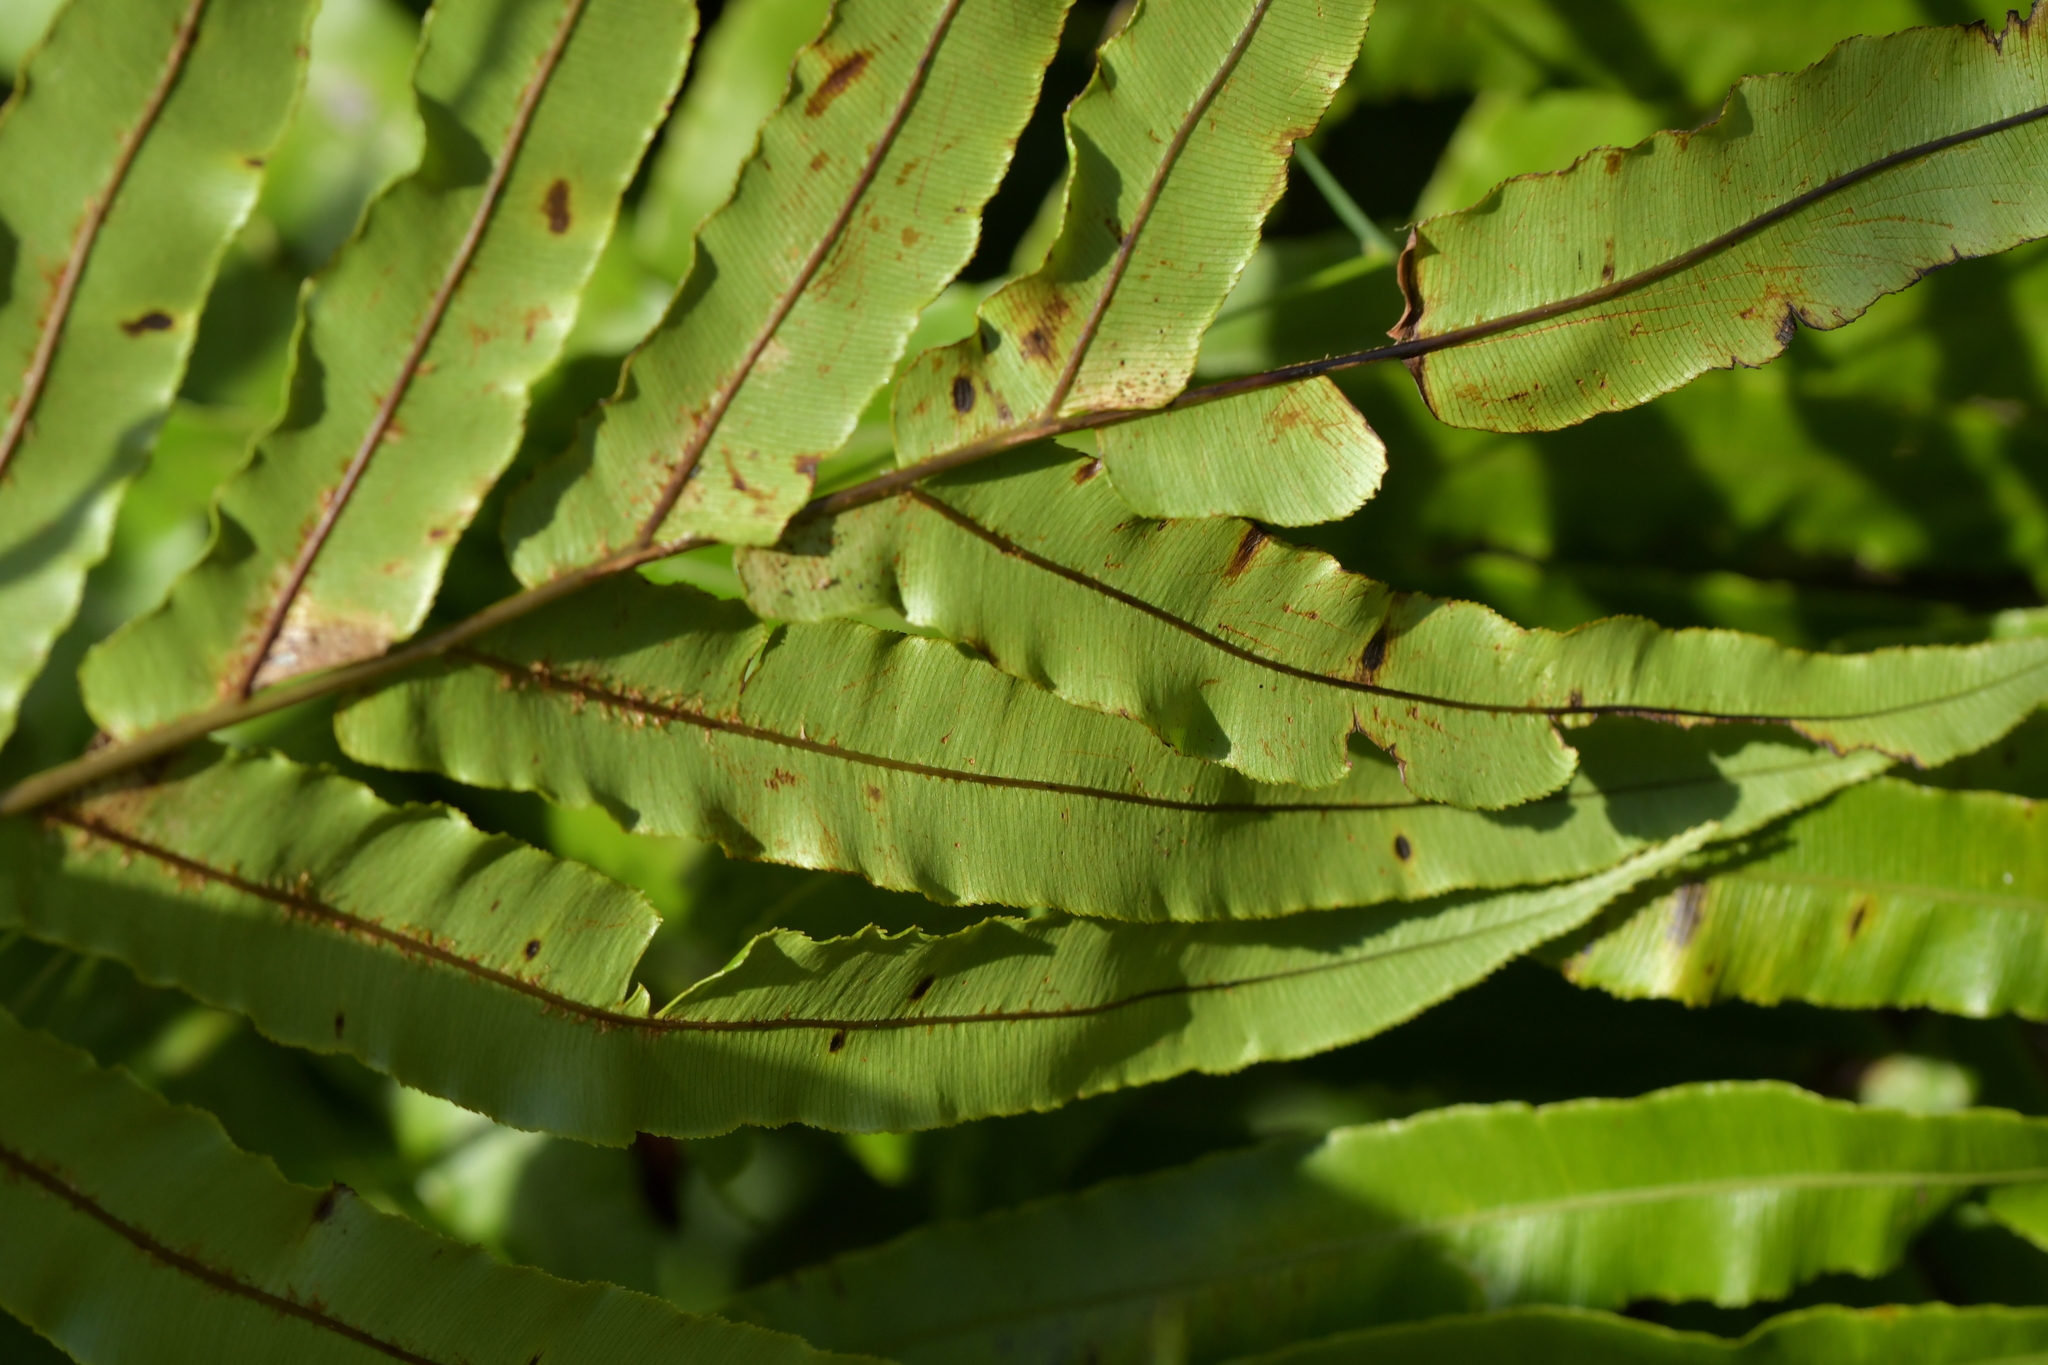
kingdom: Plantae
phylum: Tracheophyta
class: Polypodiopsida
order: Polypodiales
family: Blechnaceae
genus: Parablechnum
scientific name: Parablechnum minus
